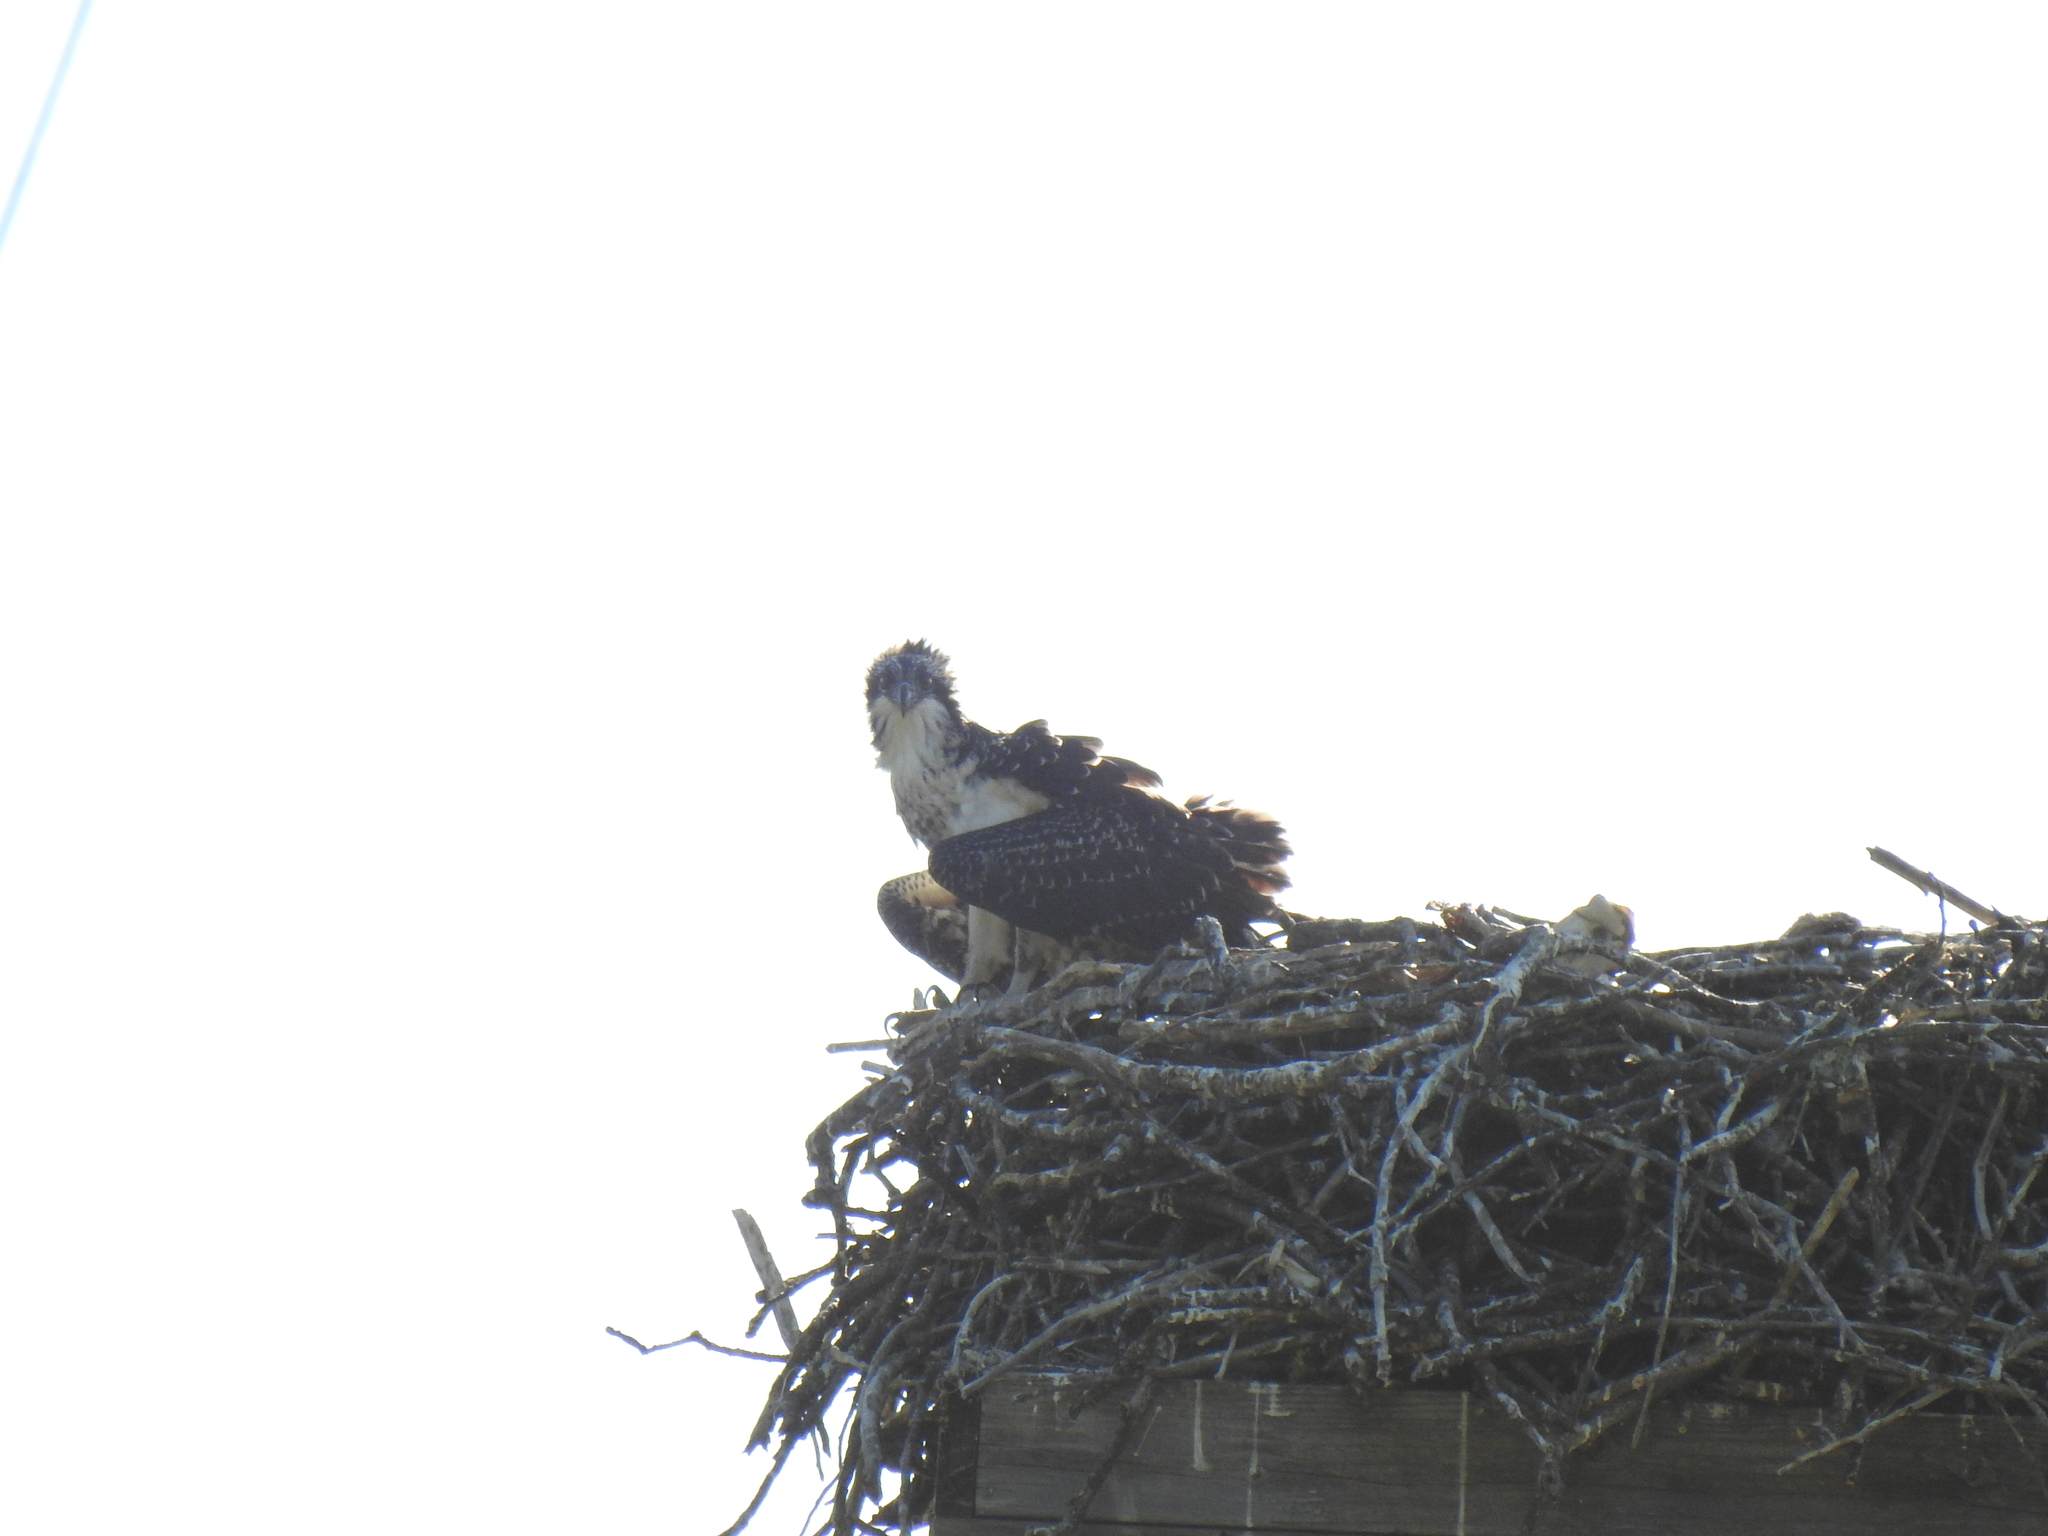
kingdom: Animalia
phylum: Chordata
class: Aves
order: Accipitriformes
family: Pandionidae
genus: Pandion
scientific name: Pandion haliaetus
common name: Osprey
